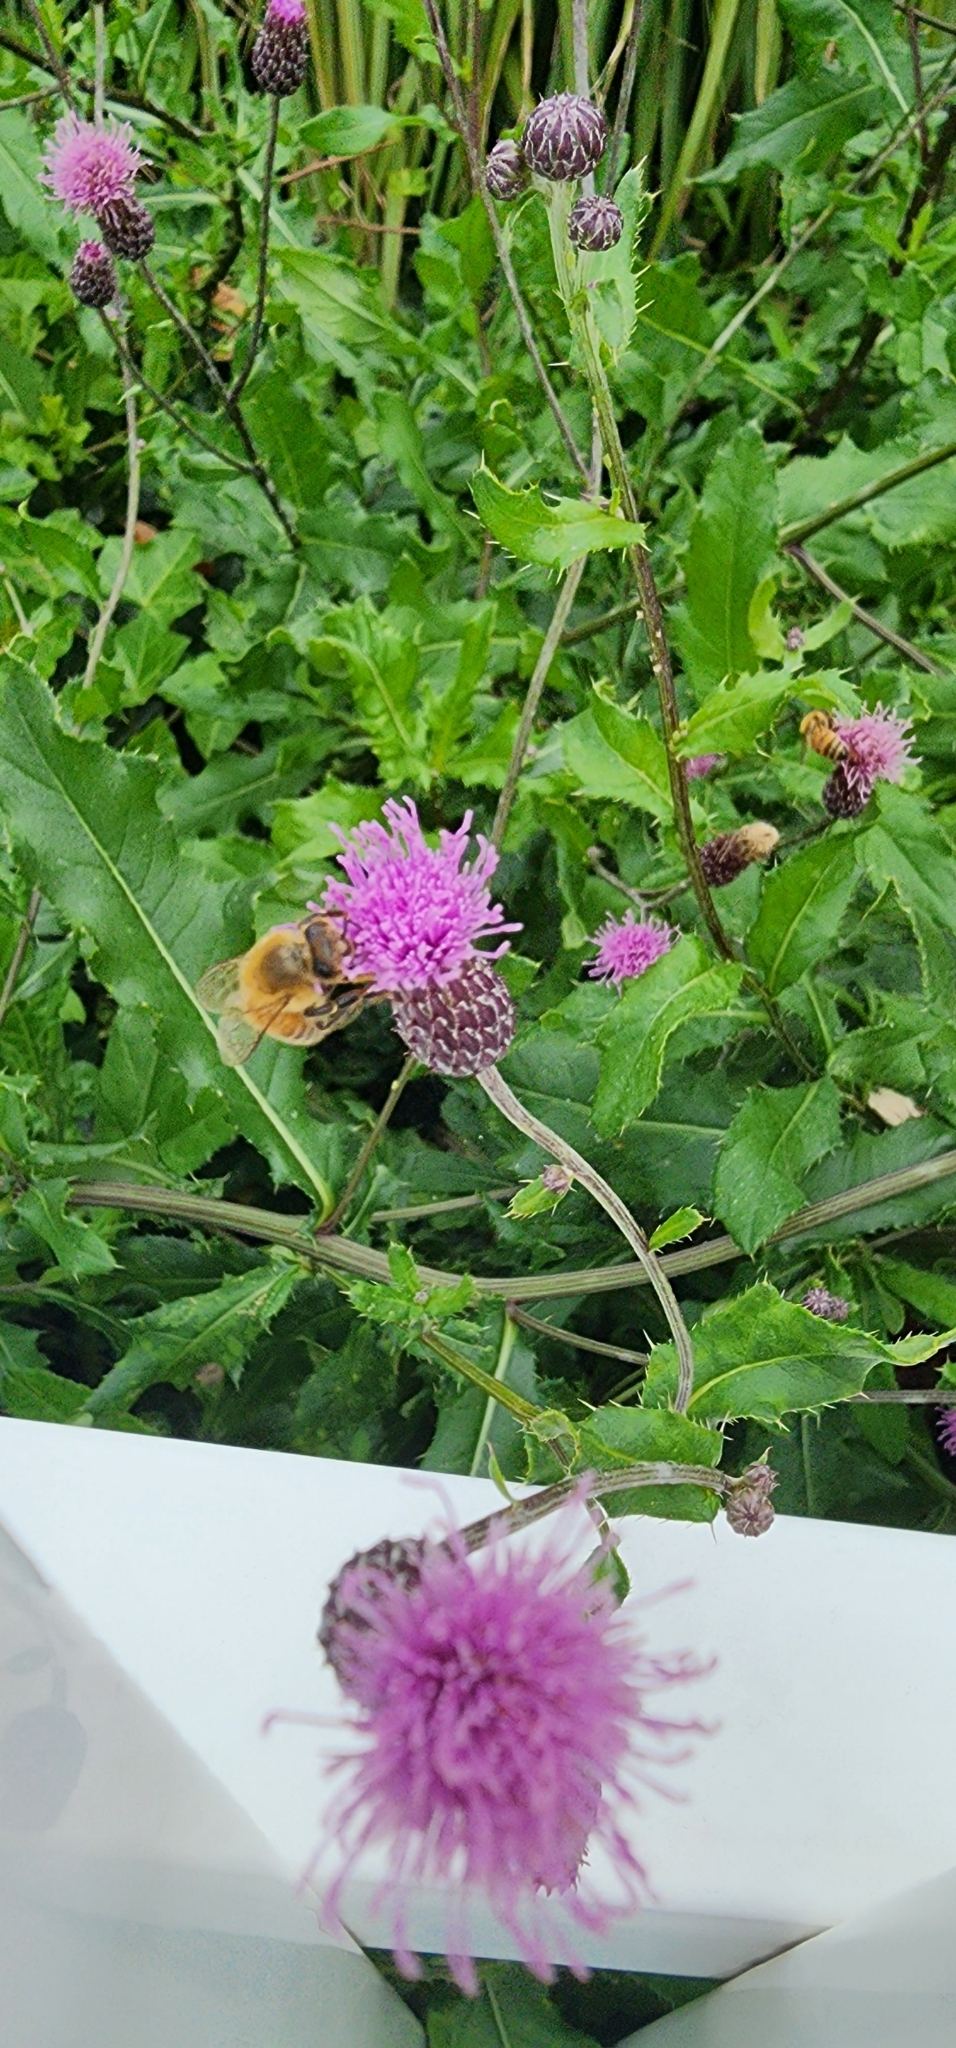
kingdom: Animalia
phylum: Arthropoda
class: Insecta
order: Hymenoptera
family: Apidae
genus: Apis
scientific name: Apis mellifera
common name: Honey bee
